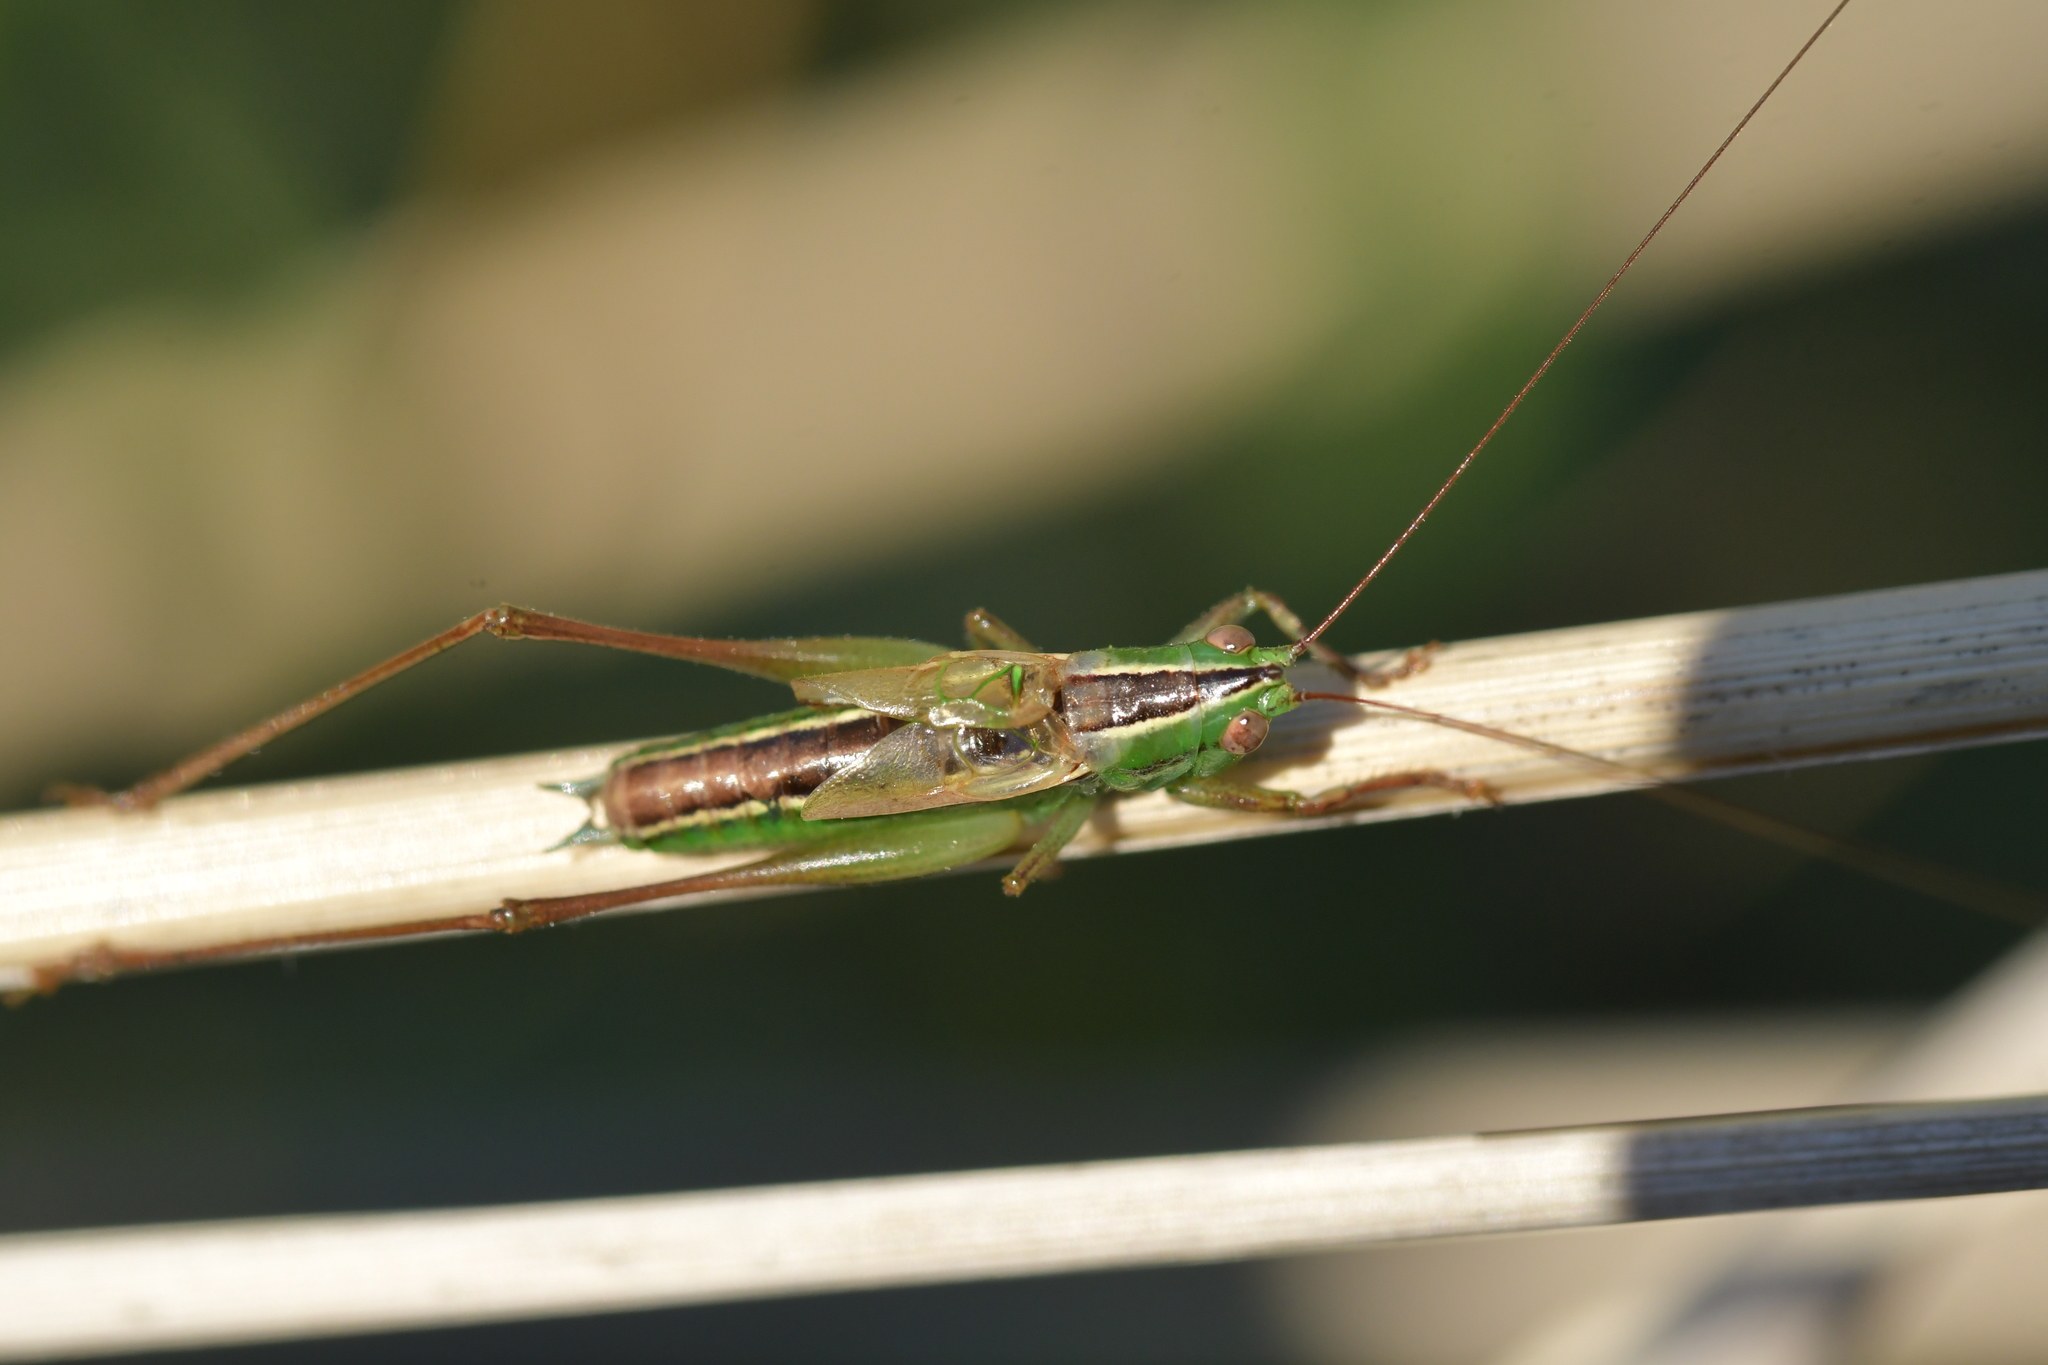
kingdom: Animalia
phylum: Arthropoda
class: Insecta
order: Orthoptera
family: Tettigoniidae
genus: Conocephalus
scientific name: Conocephalus bilineatus
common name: Small meadow katydid
